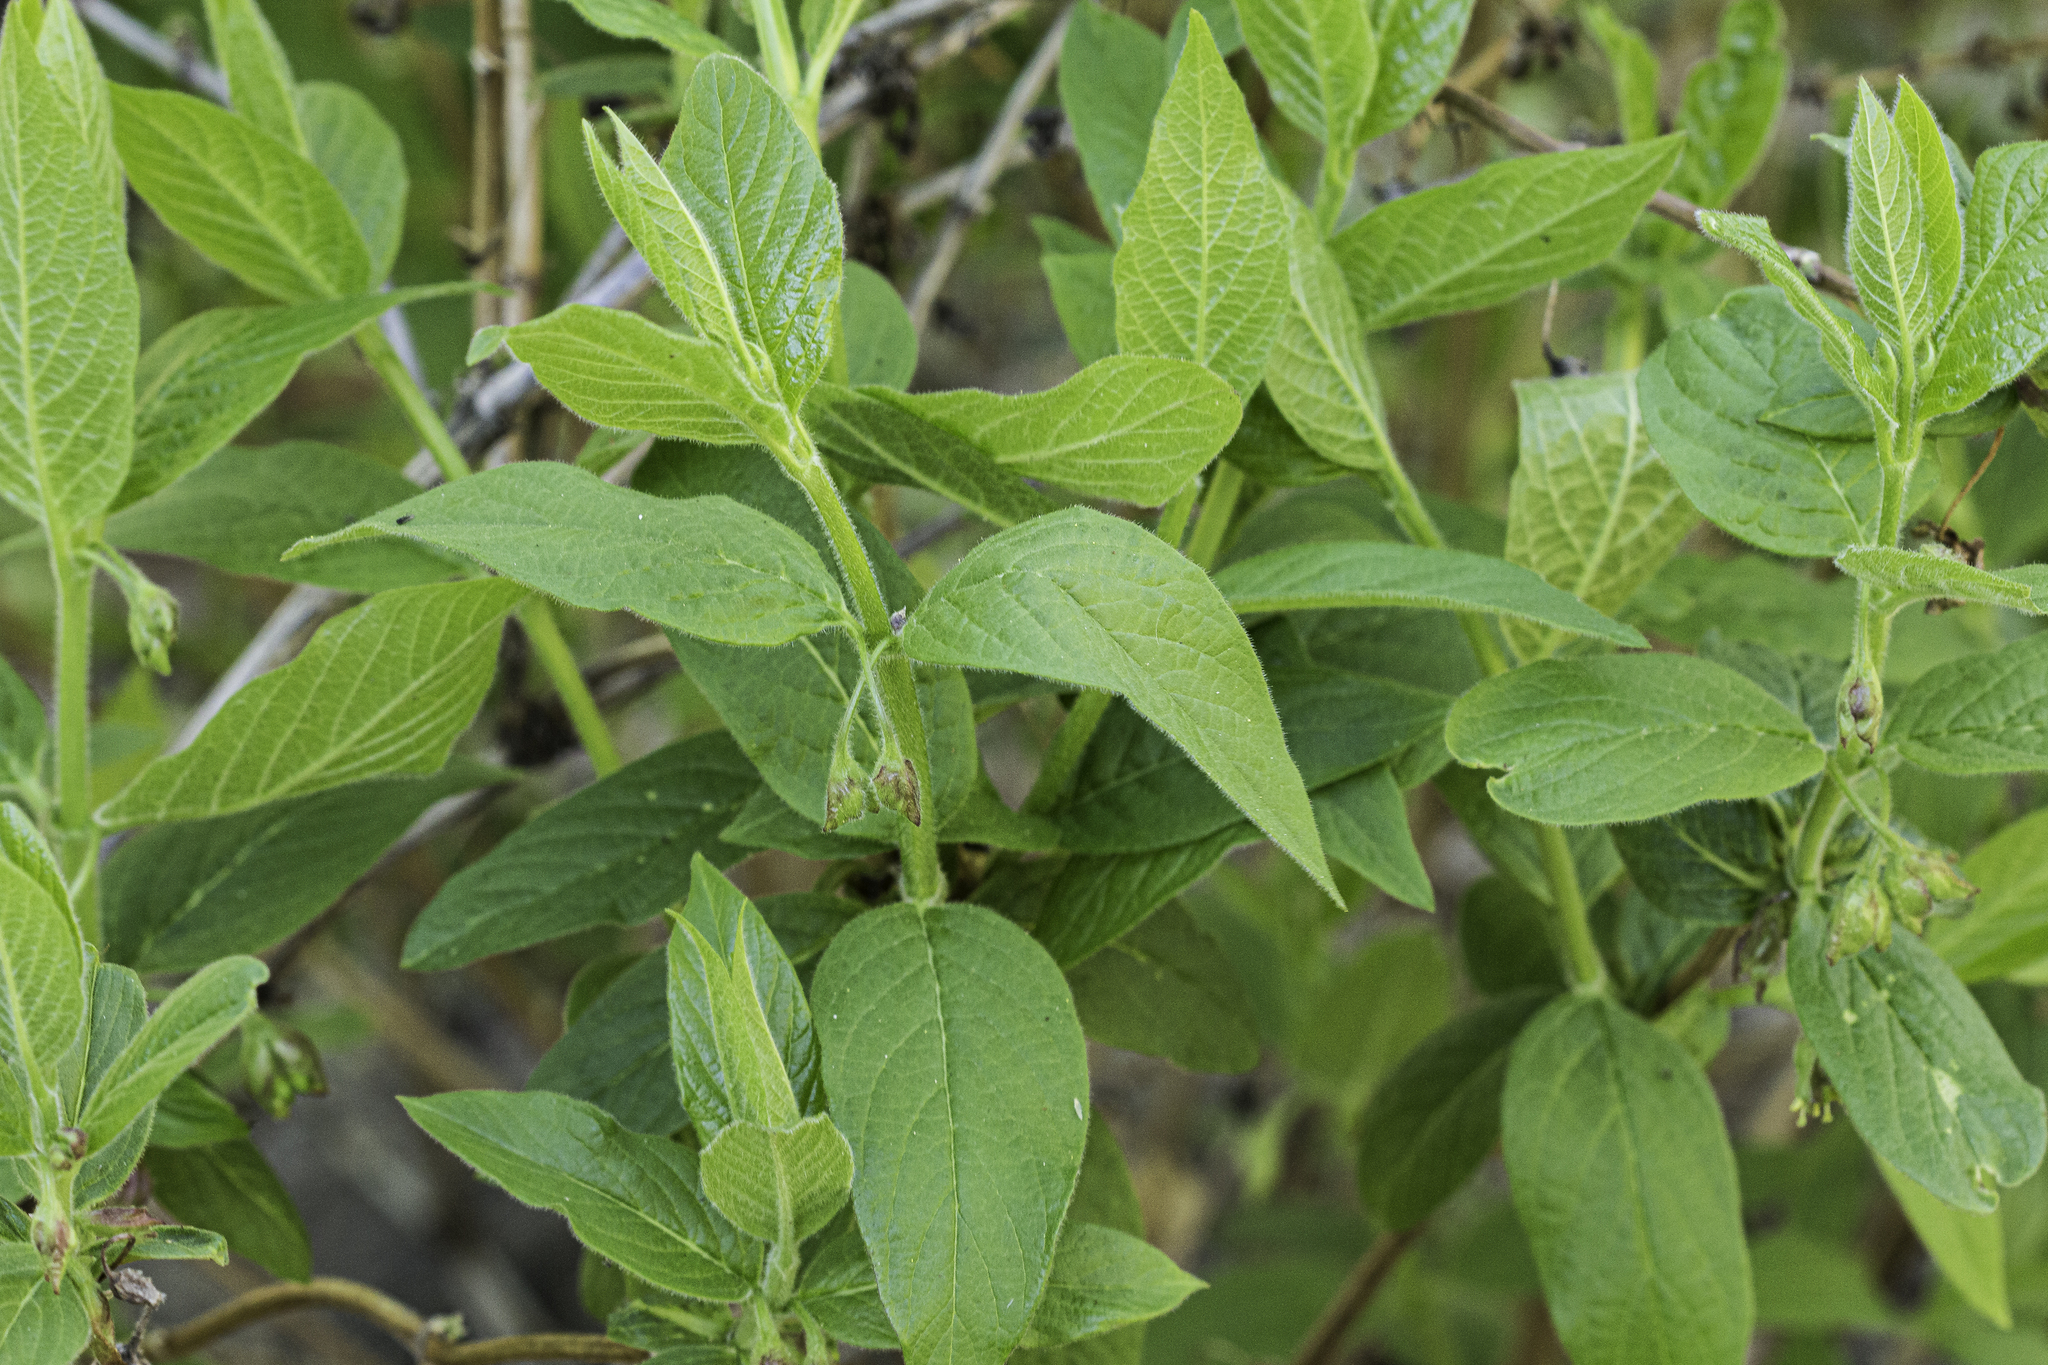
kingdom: Plantae
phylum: Tracheophyta
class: Magnoliopsida
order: Dipsacales
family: Caprifoliaceae
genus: Lonicera
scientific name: Lonicera involucrata
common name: Californian honeysuckle
